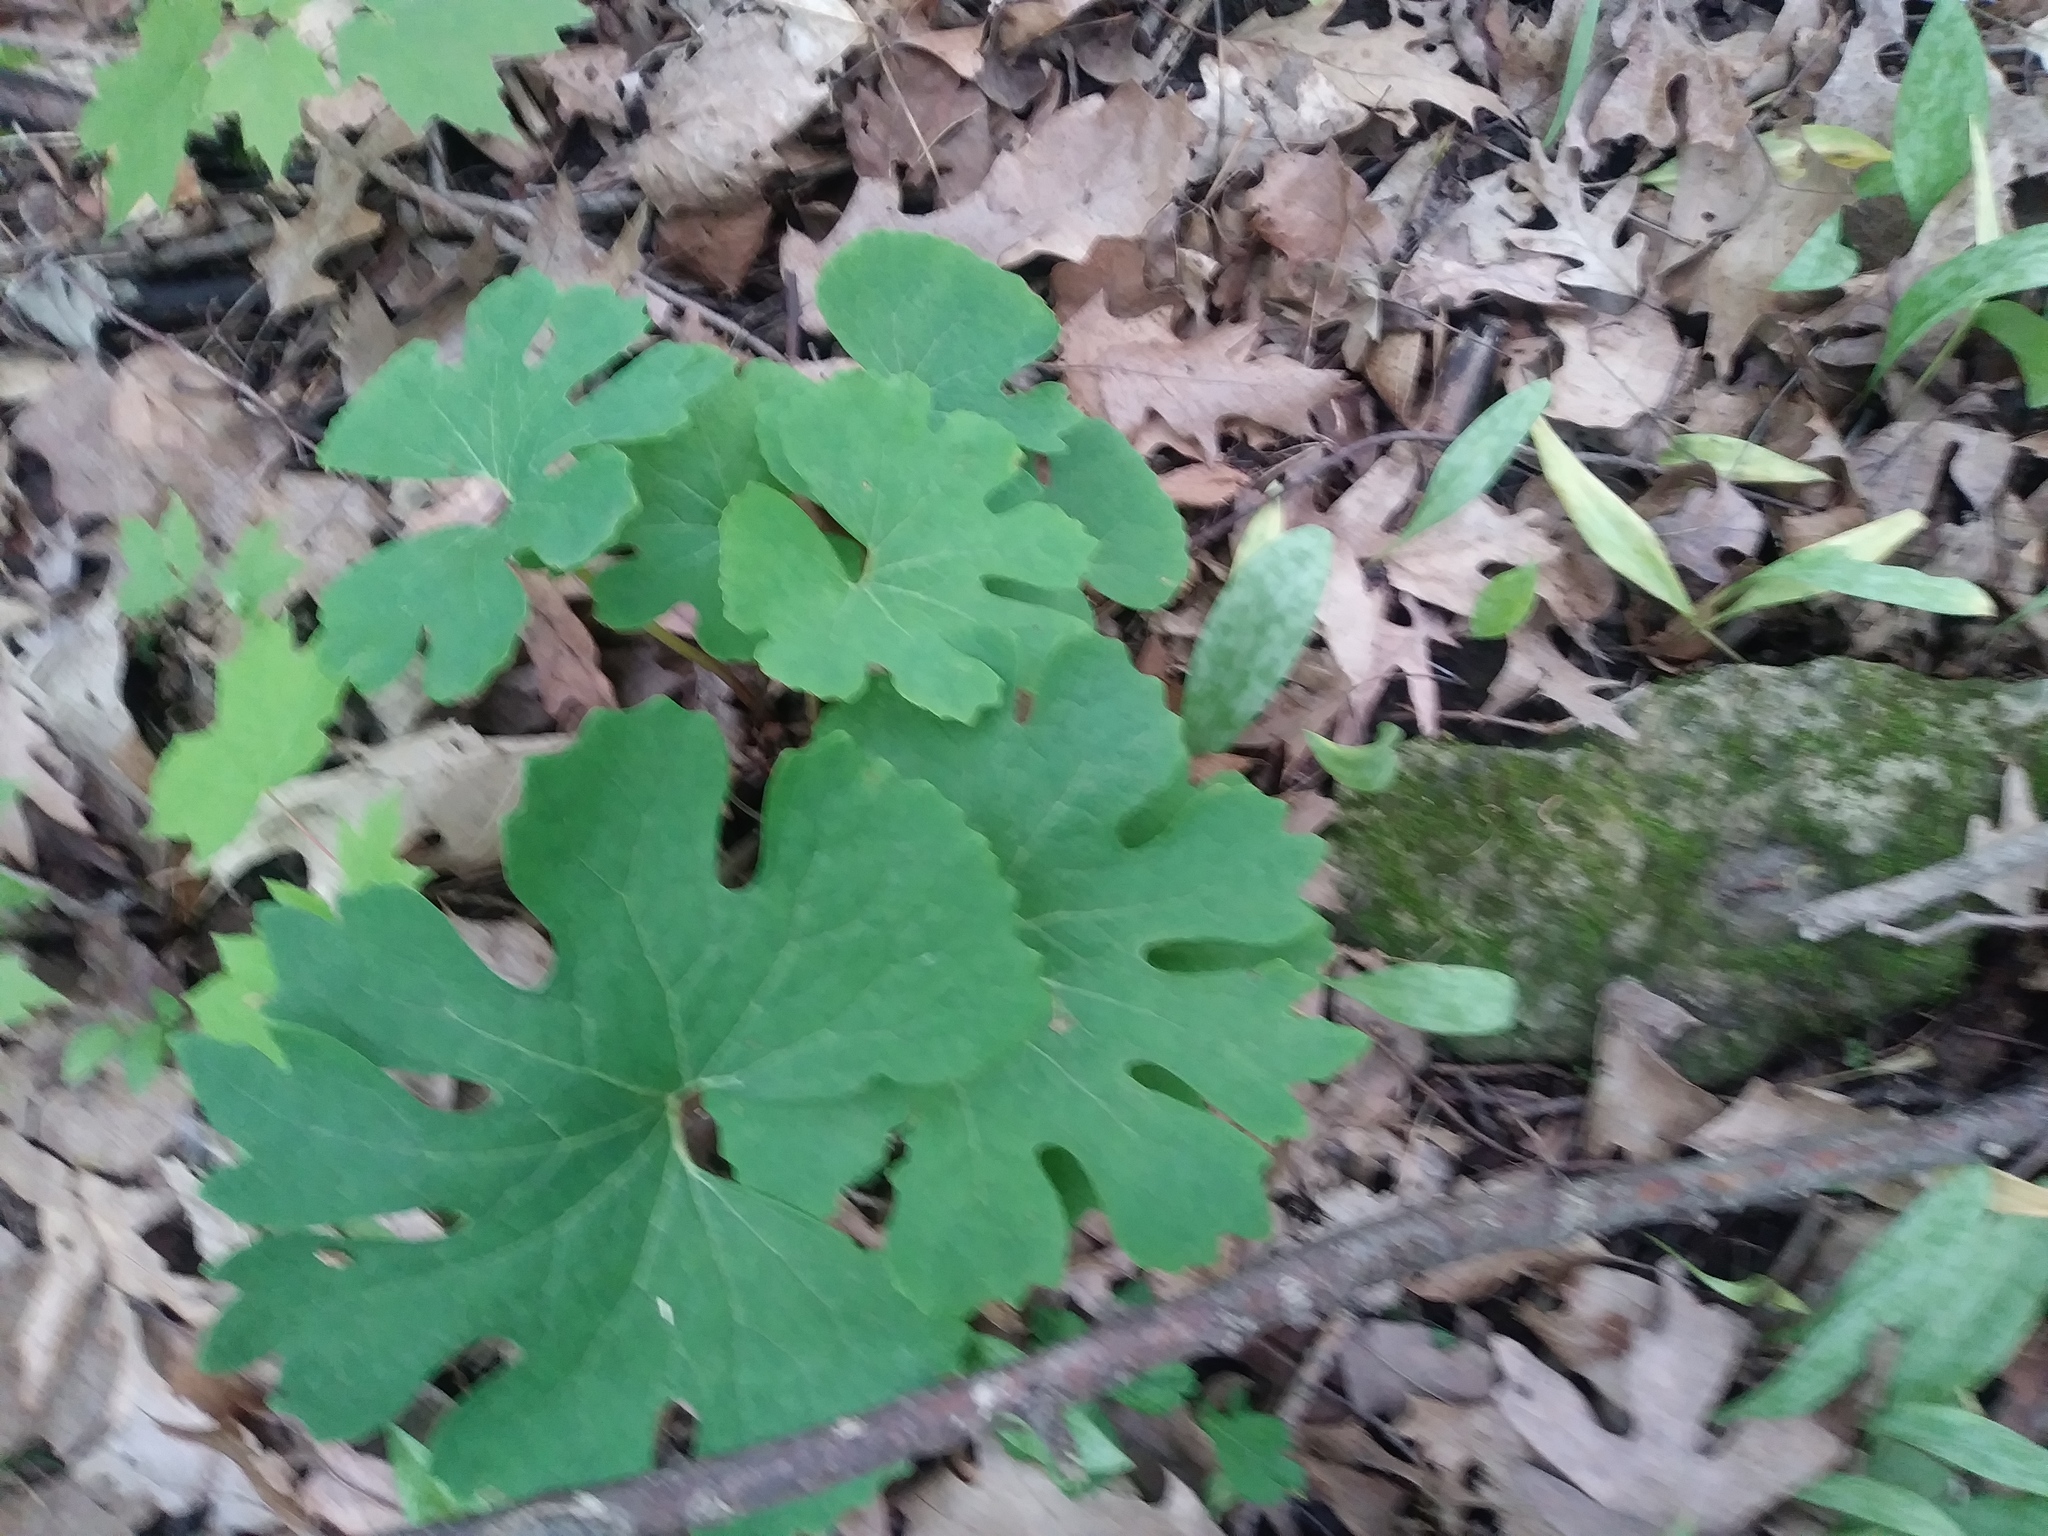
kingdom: Plantae
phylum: Tracheophyta
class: Magnoliopsida
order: Ranunculales
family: Papaveraceae
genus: Sanguinaria
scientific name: Sanguinaria canadensis
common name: Bloodroot
